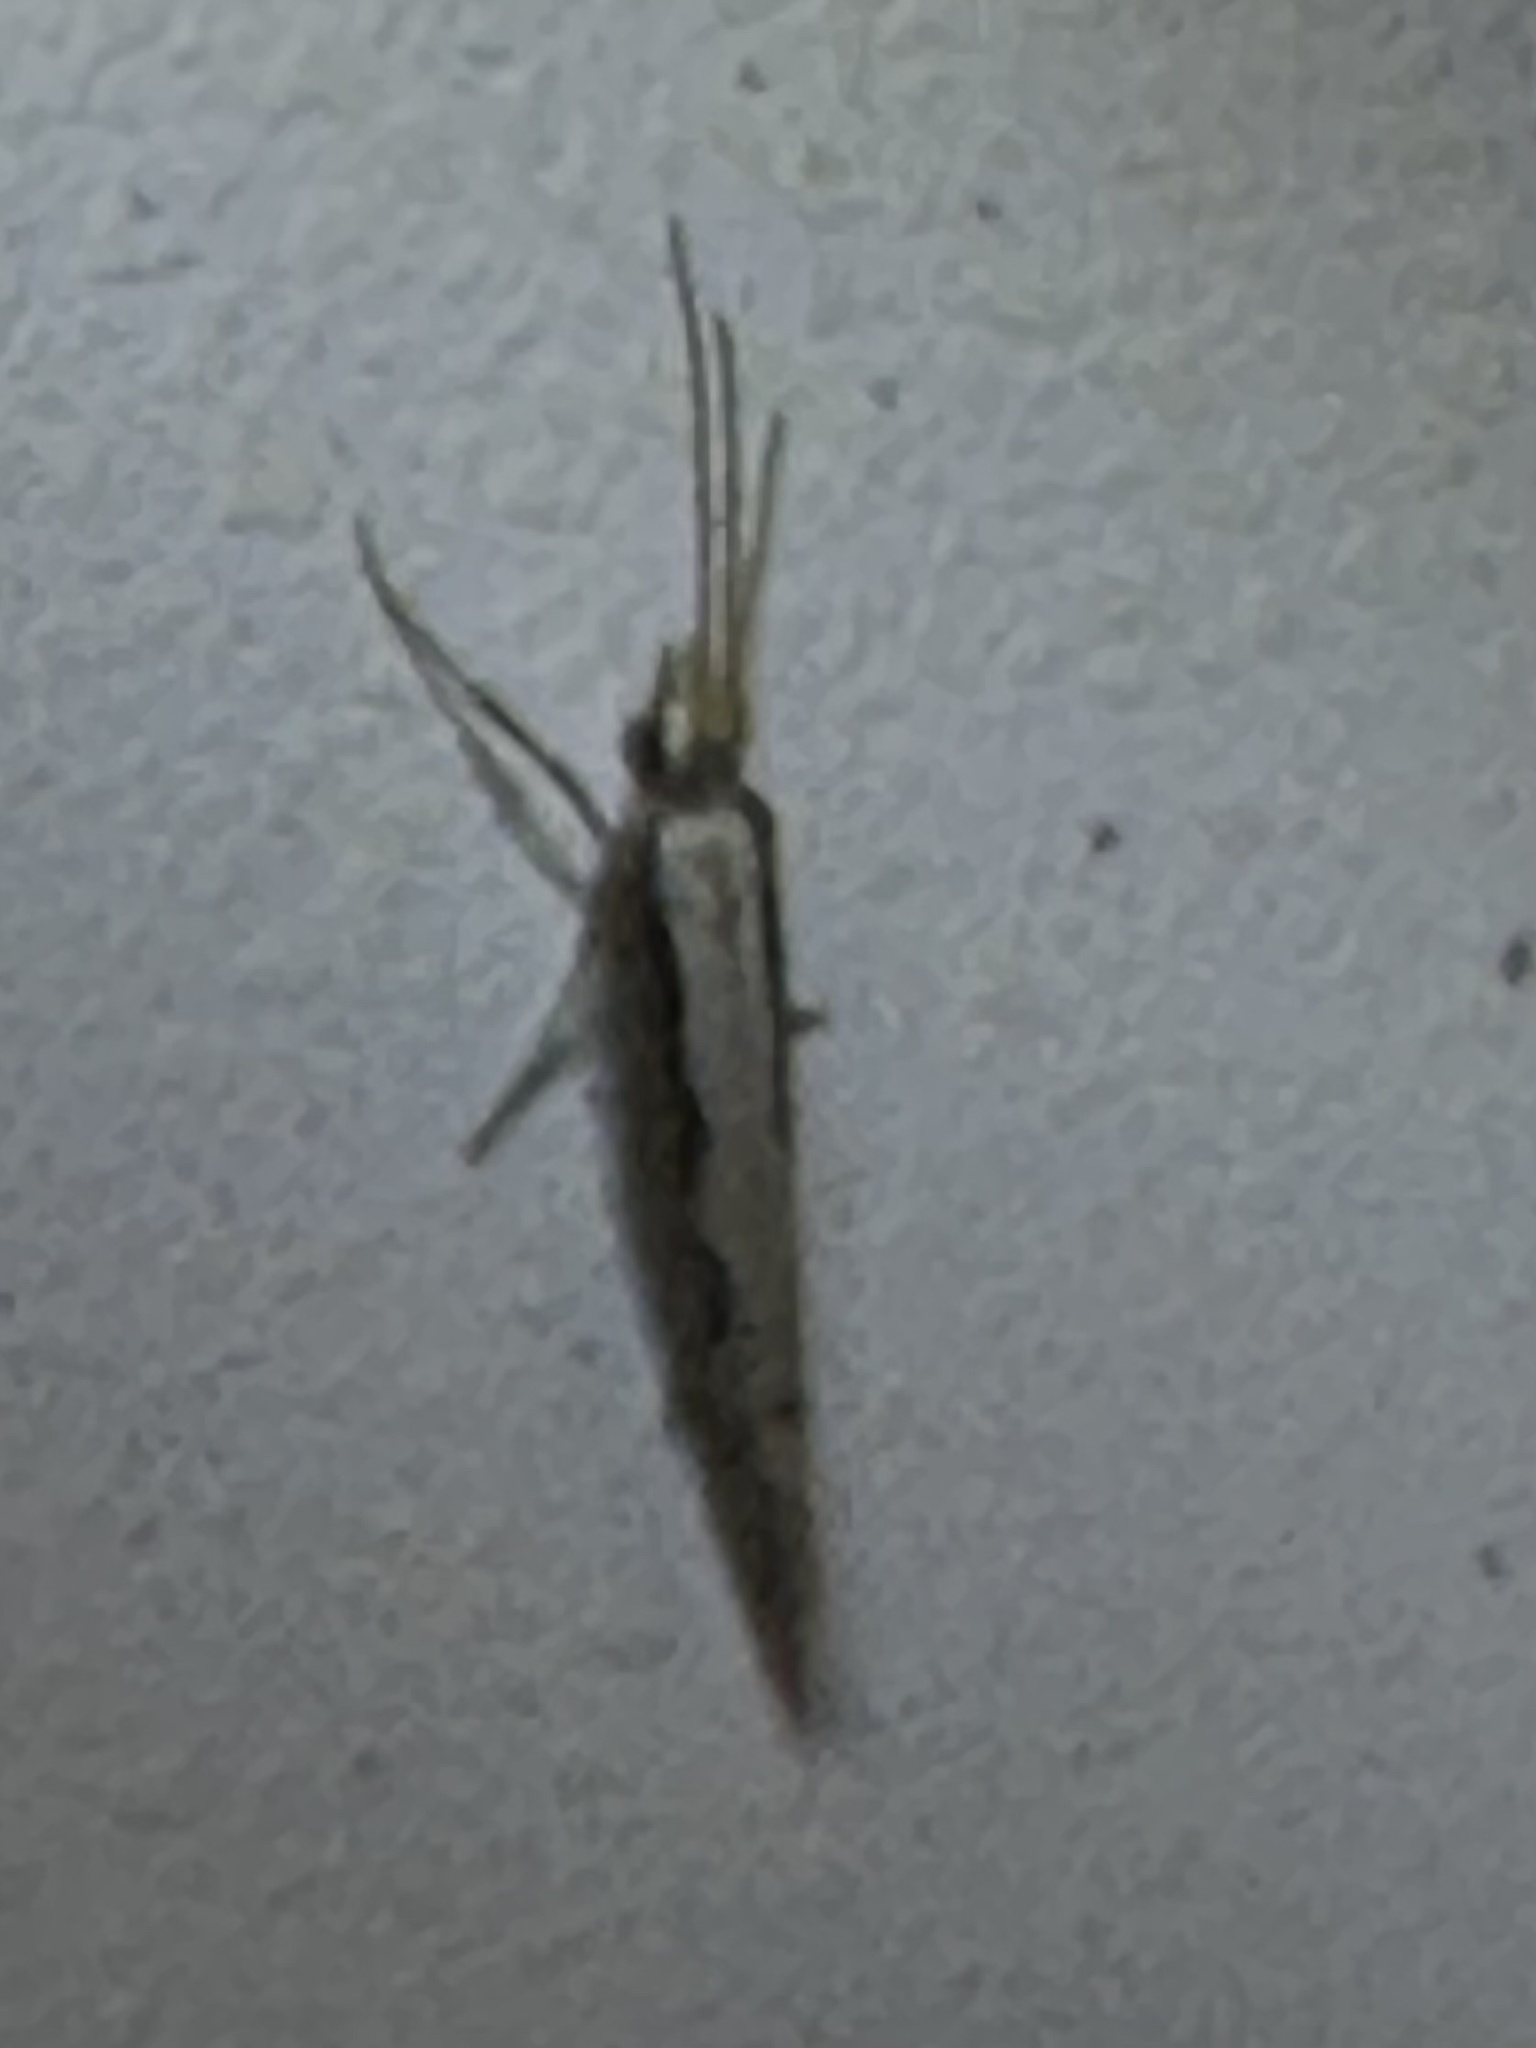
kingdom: Animalia
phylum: Arthropoda
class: Insecta
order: Lepidoptera
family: Plutellidae
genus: Plutella
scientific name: Plutella xylostella
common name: Diamond-back moth
